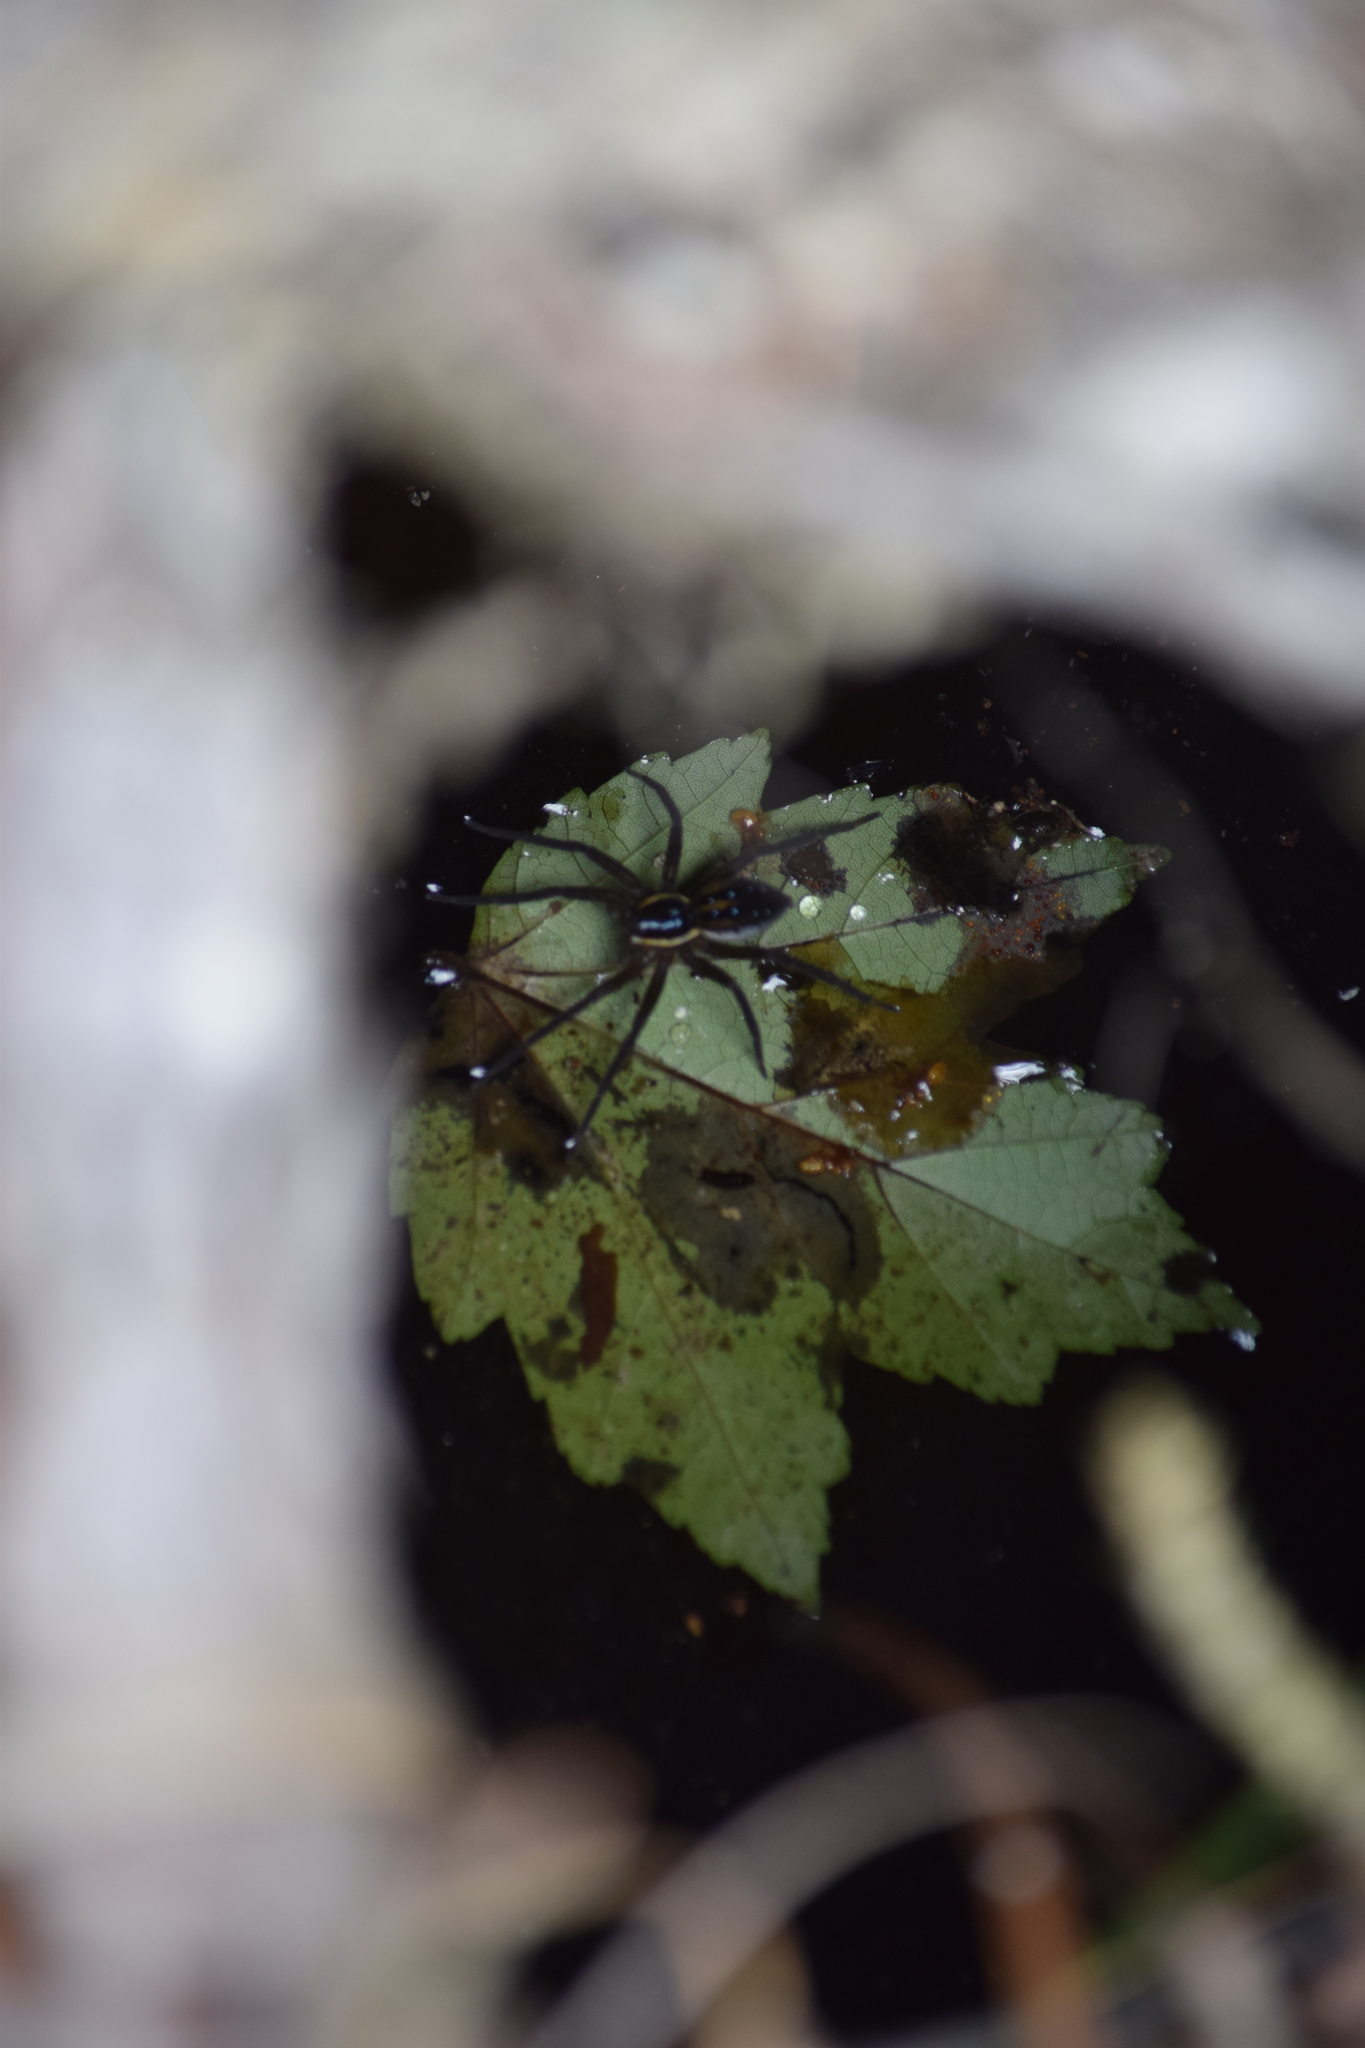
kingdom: Animalia
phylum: Arthropoda
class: Arachnida
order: Araneae
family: Pisauridae
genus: Dolomedes
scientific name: Dolomedes triton
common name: Six-spotted fishing spider
